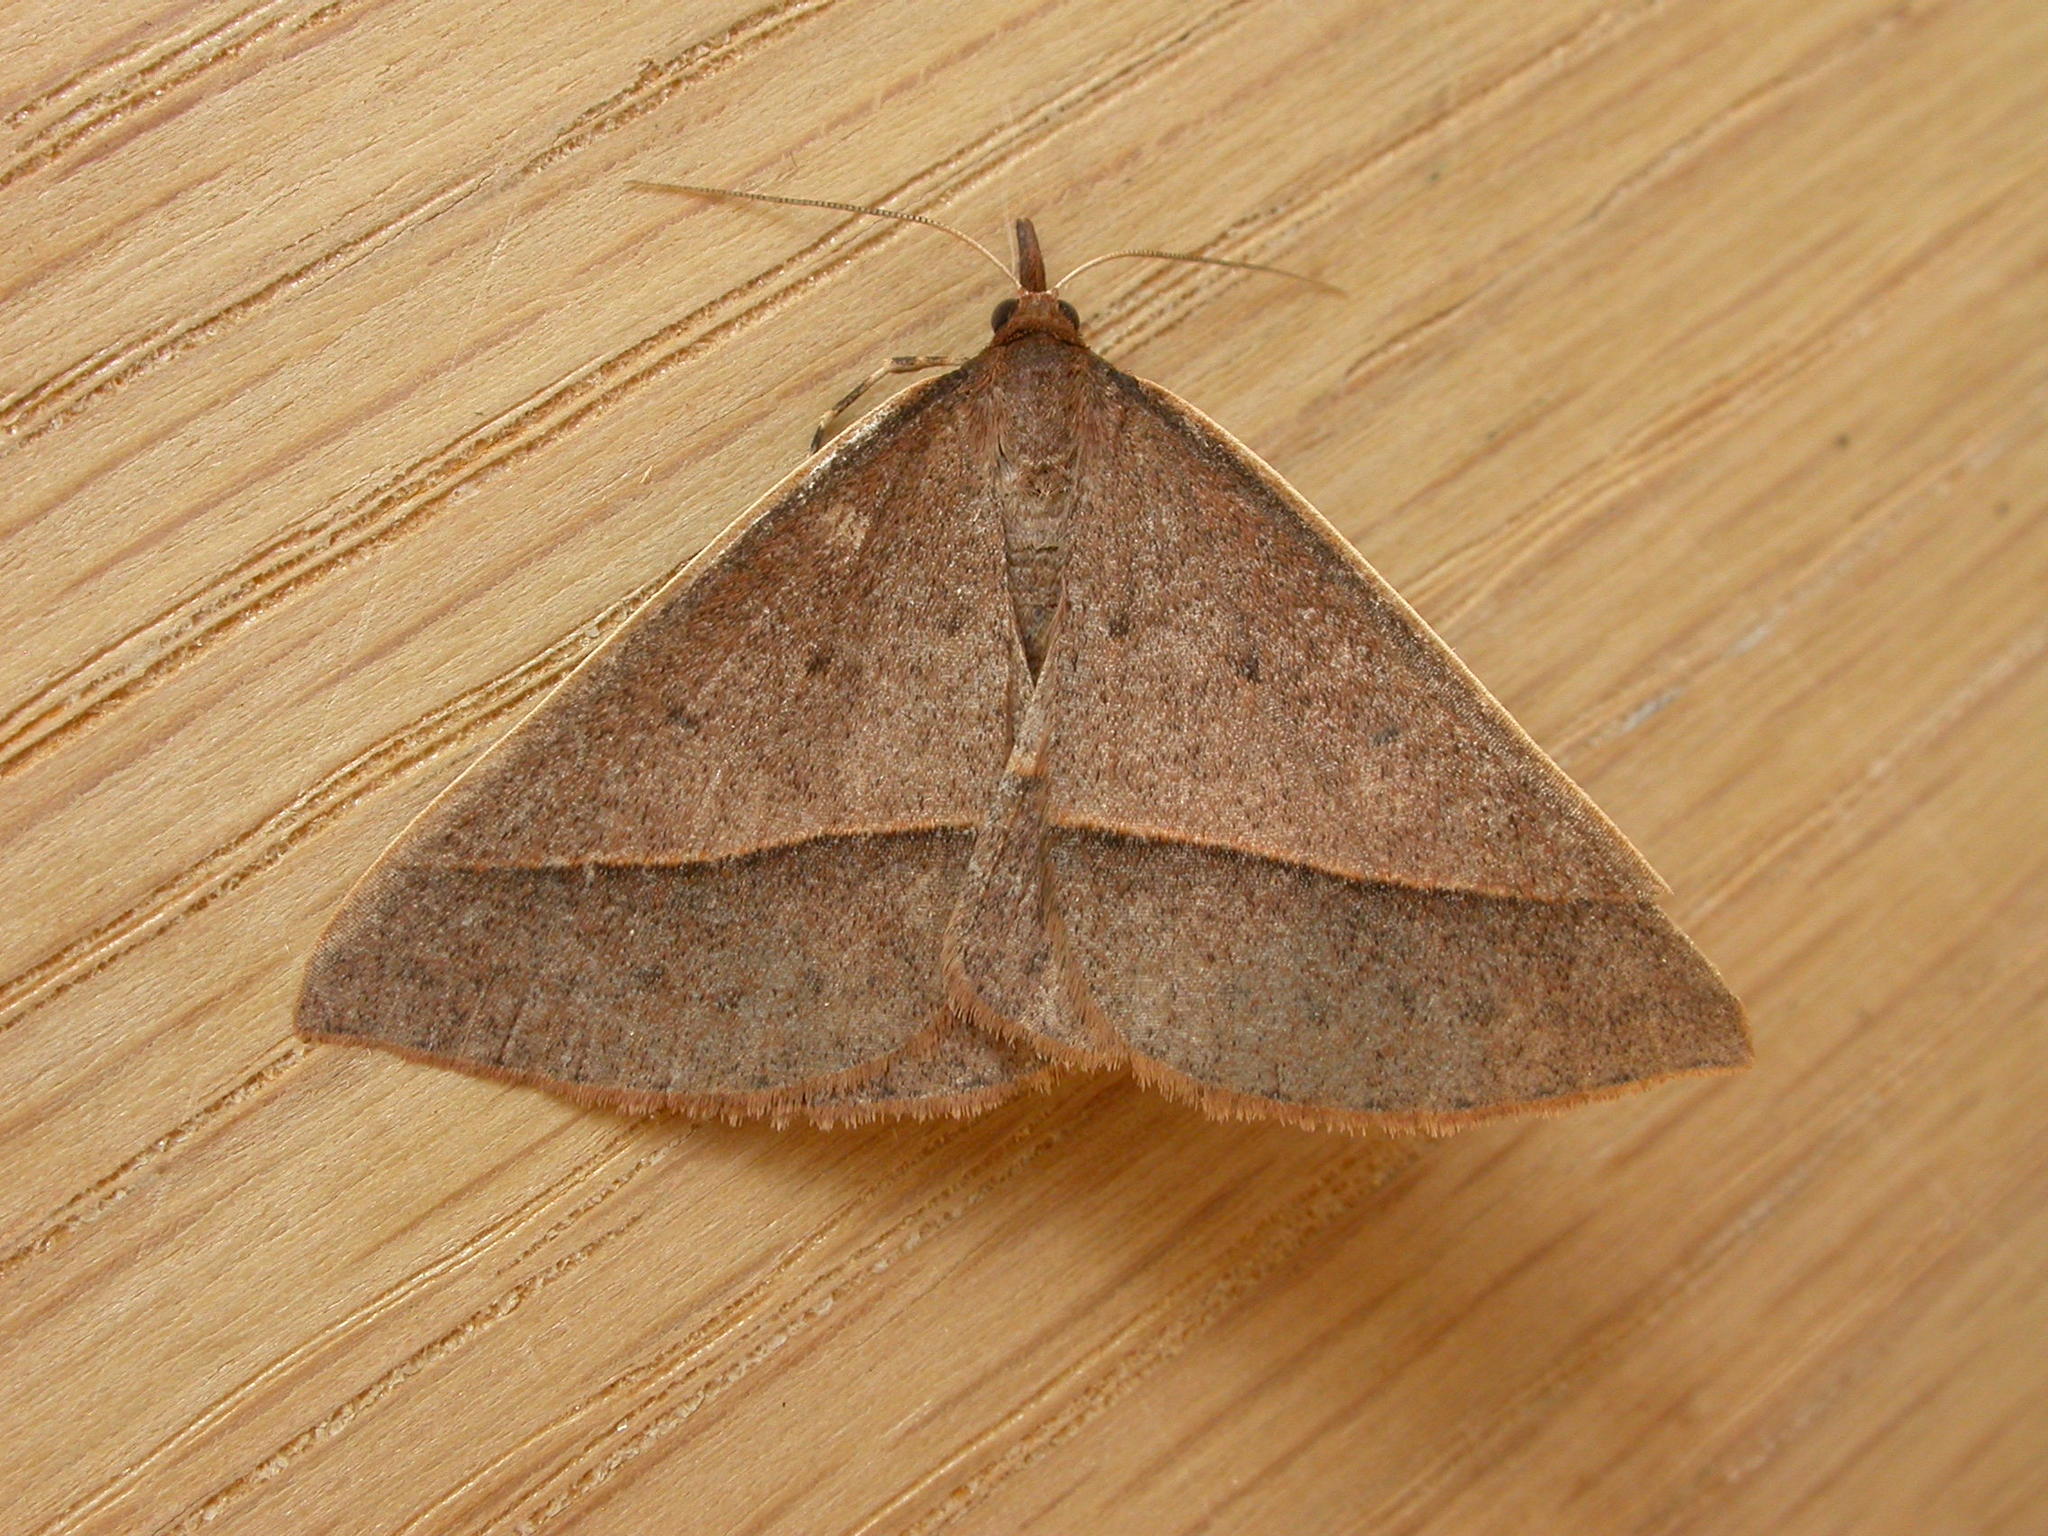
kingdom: Animalia
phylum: Arthropoda
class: Insecta
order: Lepidoptera
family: Geometridae
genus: Epidesmia
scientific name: Epidesmia chilonaria
